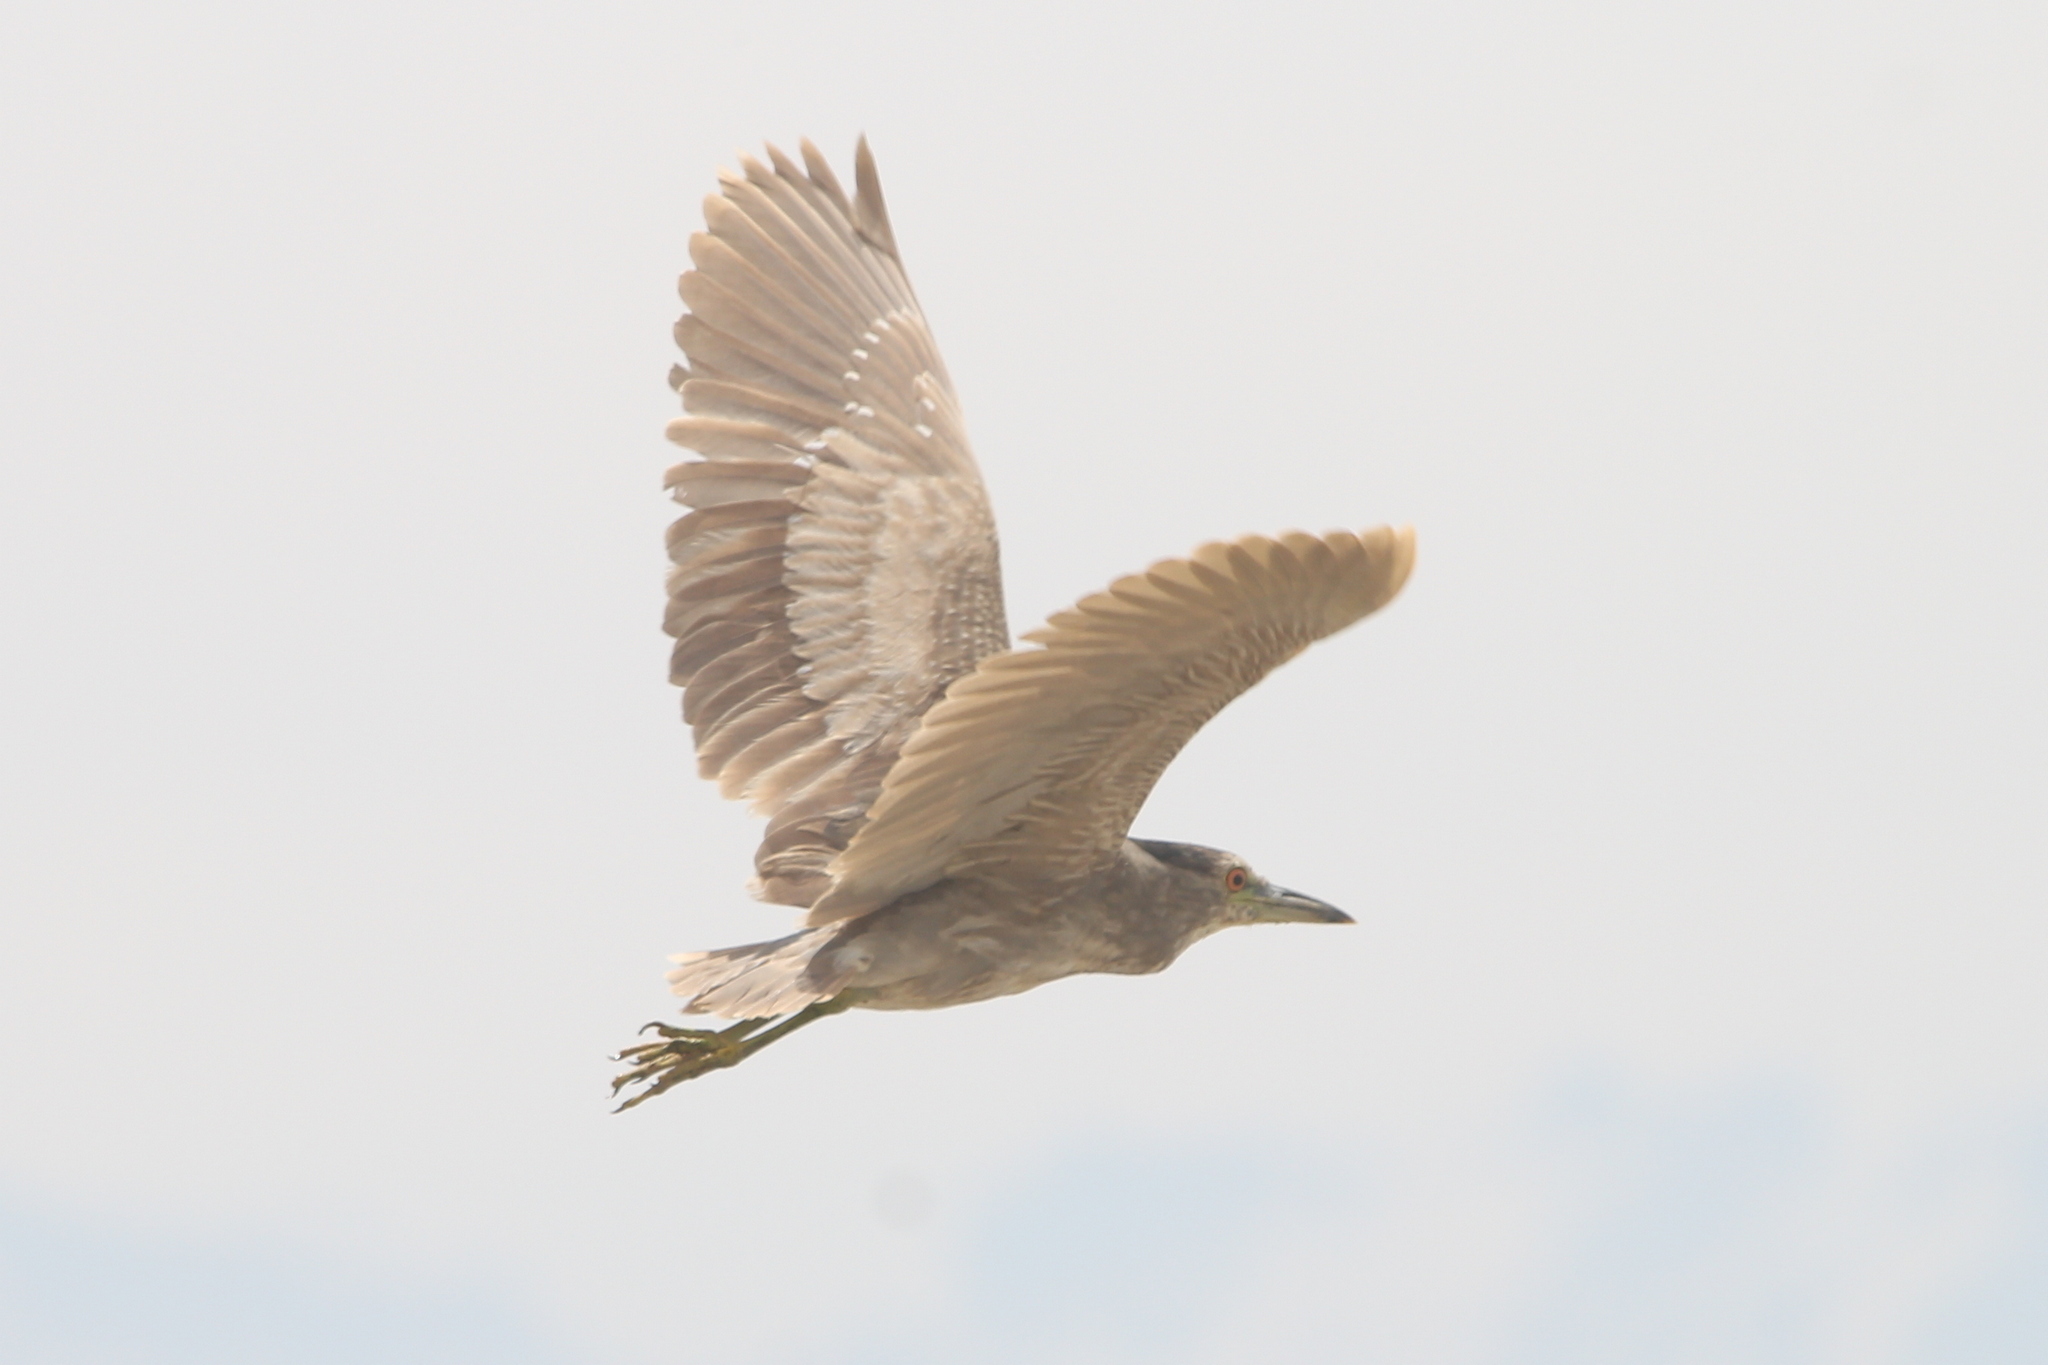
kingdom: Animalia
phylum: Chordata
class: Aves
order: Pelecaniformes
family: Ardeidae
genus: Nycticorax
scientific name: Nycticorax nycticorax
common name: Black-crowned night heron
